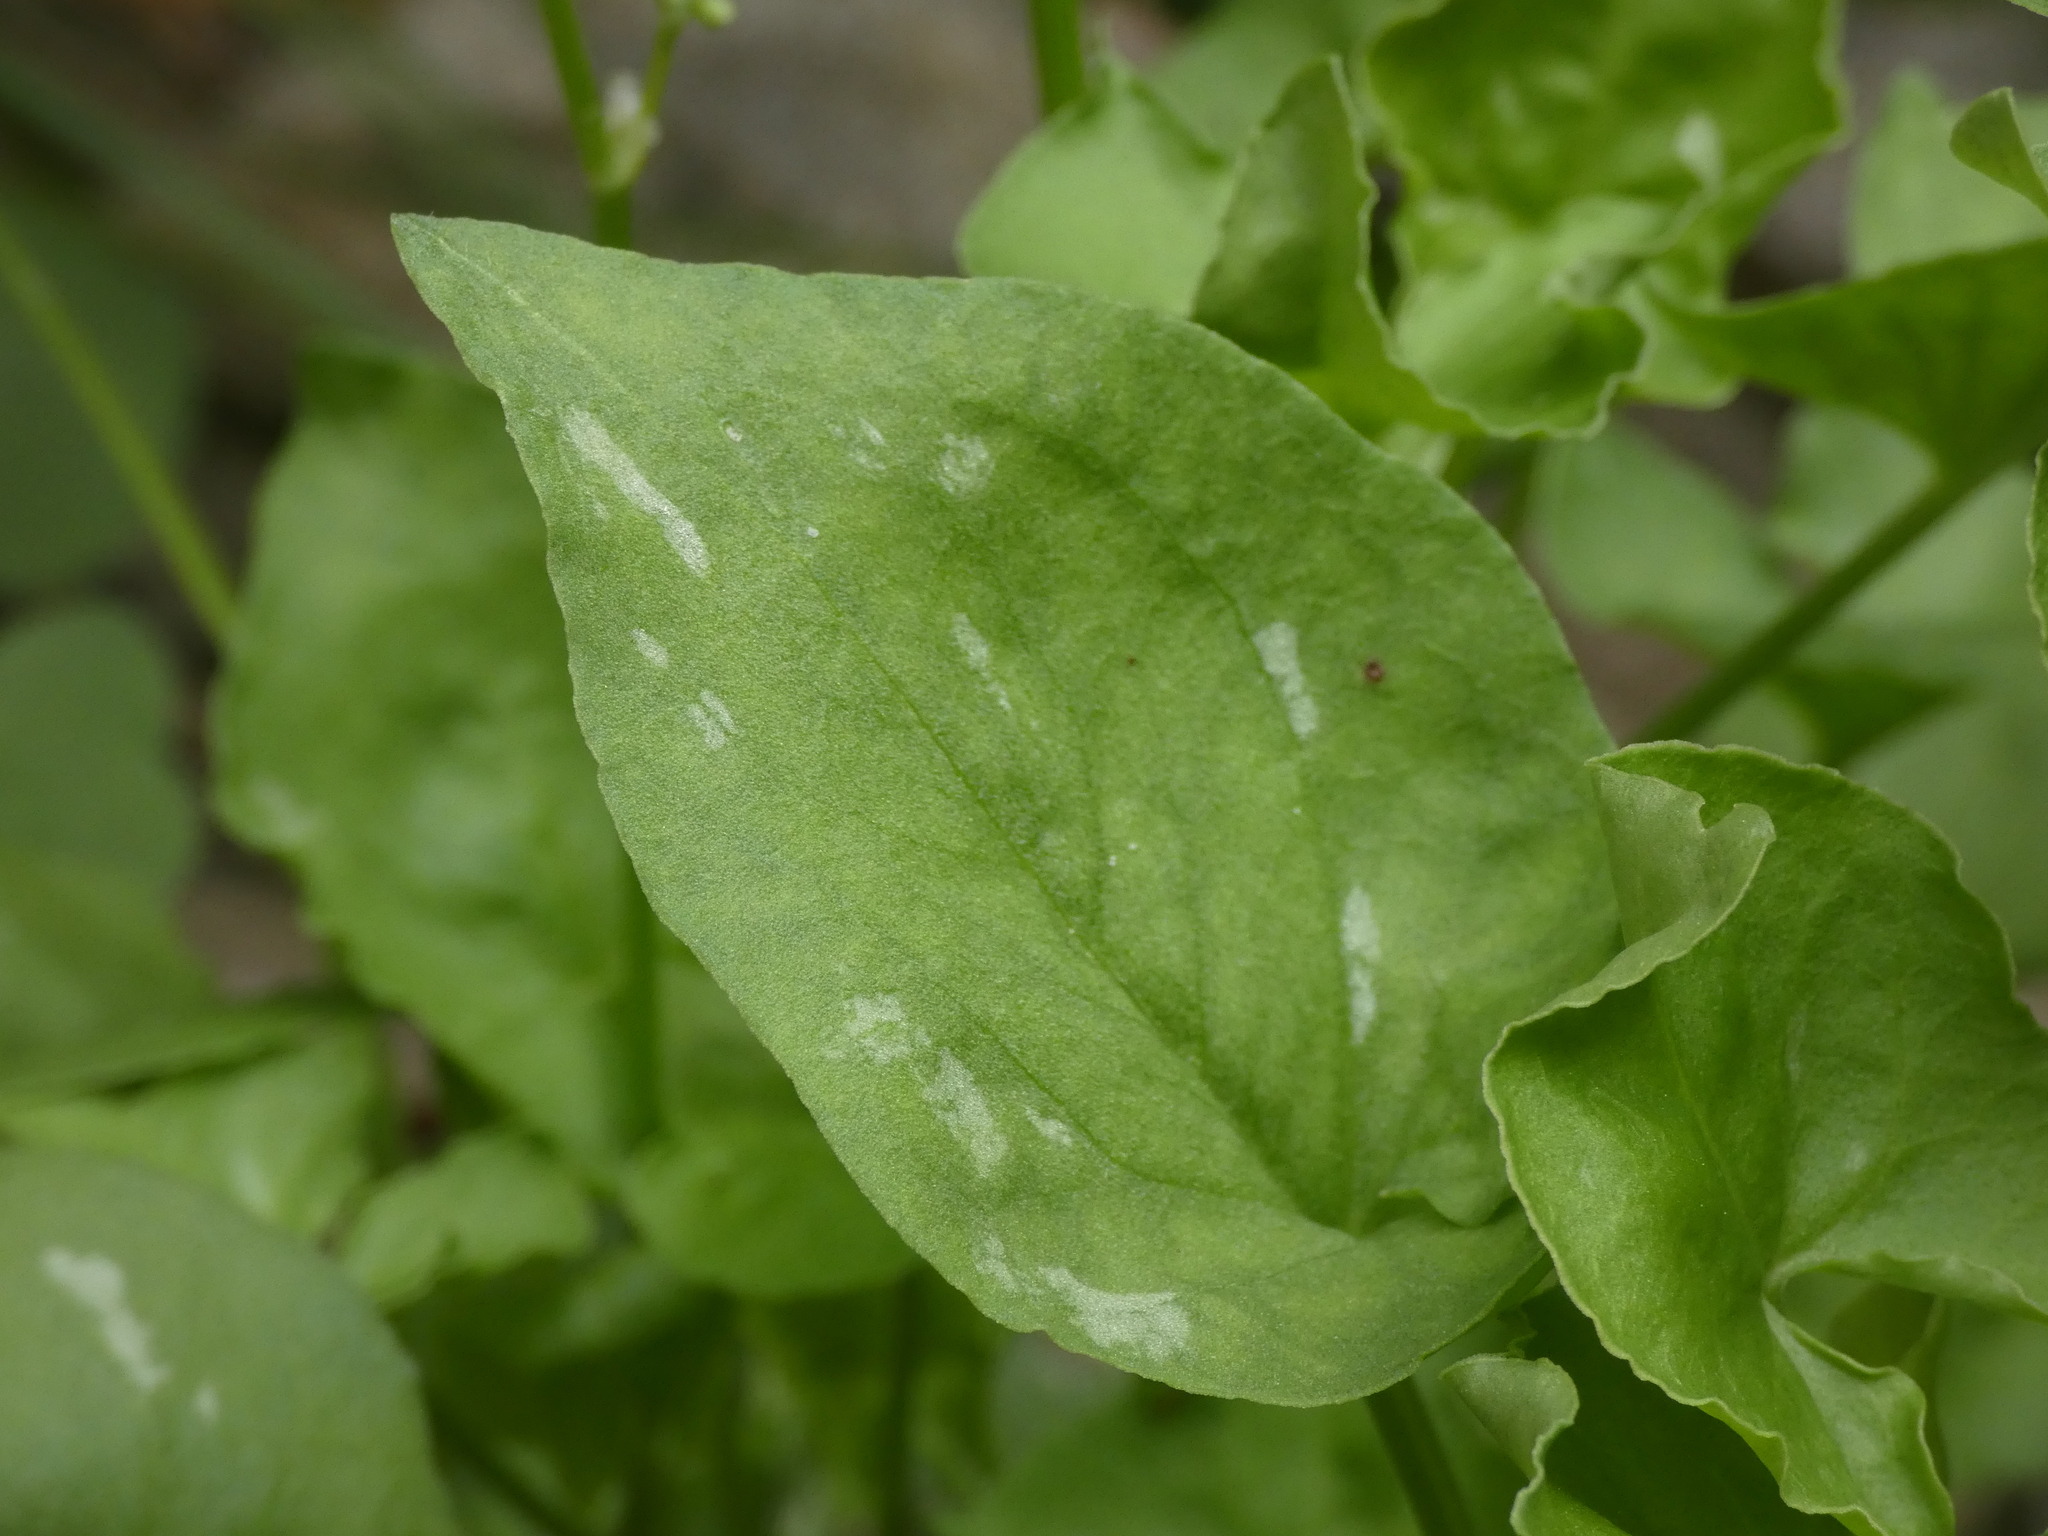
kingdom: Plantae
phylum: Tracheophyta
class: Magnoliopsida
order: Caryophyllales
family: Polygonaceae
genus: Rumex
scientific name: Rumex scutatus
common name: French sorrel
